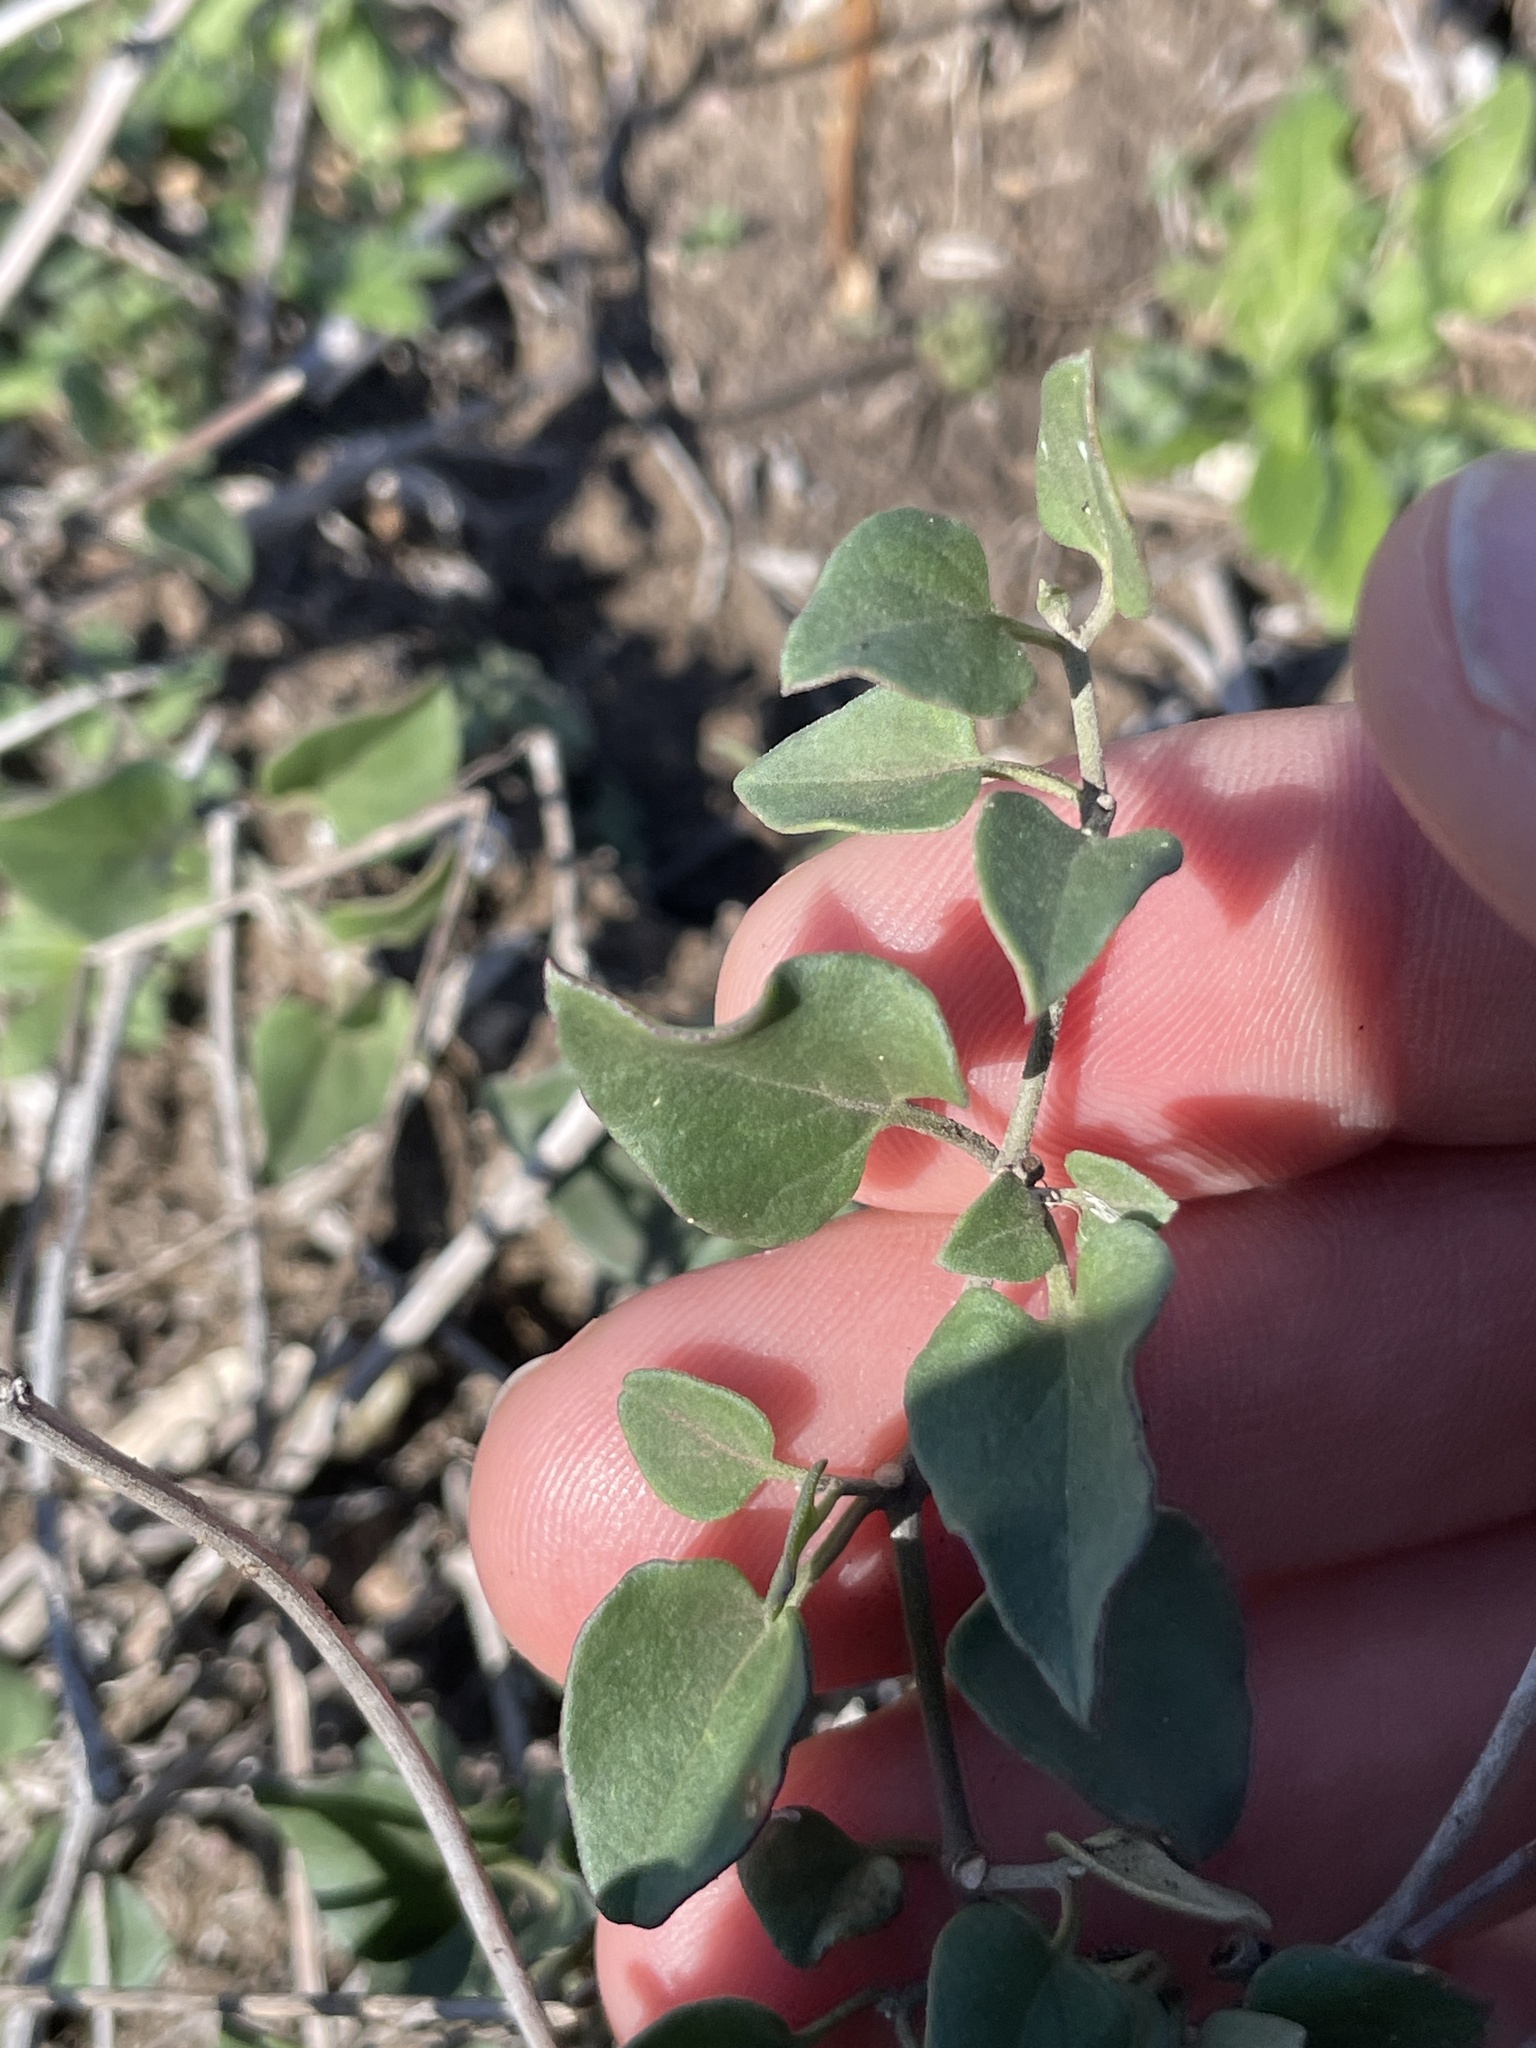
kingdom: Plantae
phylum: Tracheophyta
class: Magnoliopsida
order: Caryophyllales
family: Nyctaginaceae
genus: Acleisanthes
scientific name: Acleisanthes obtusa
